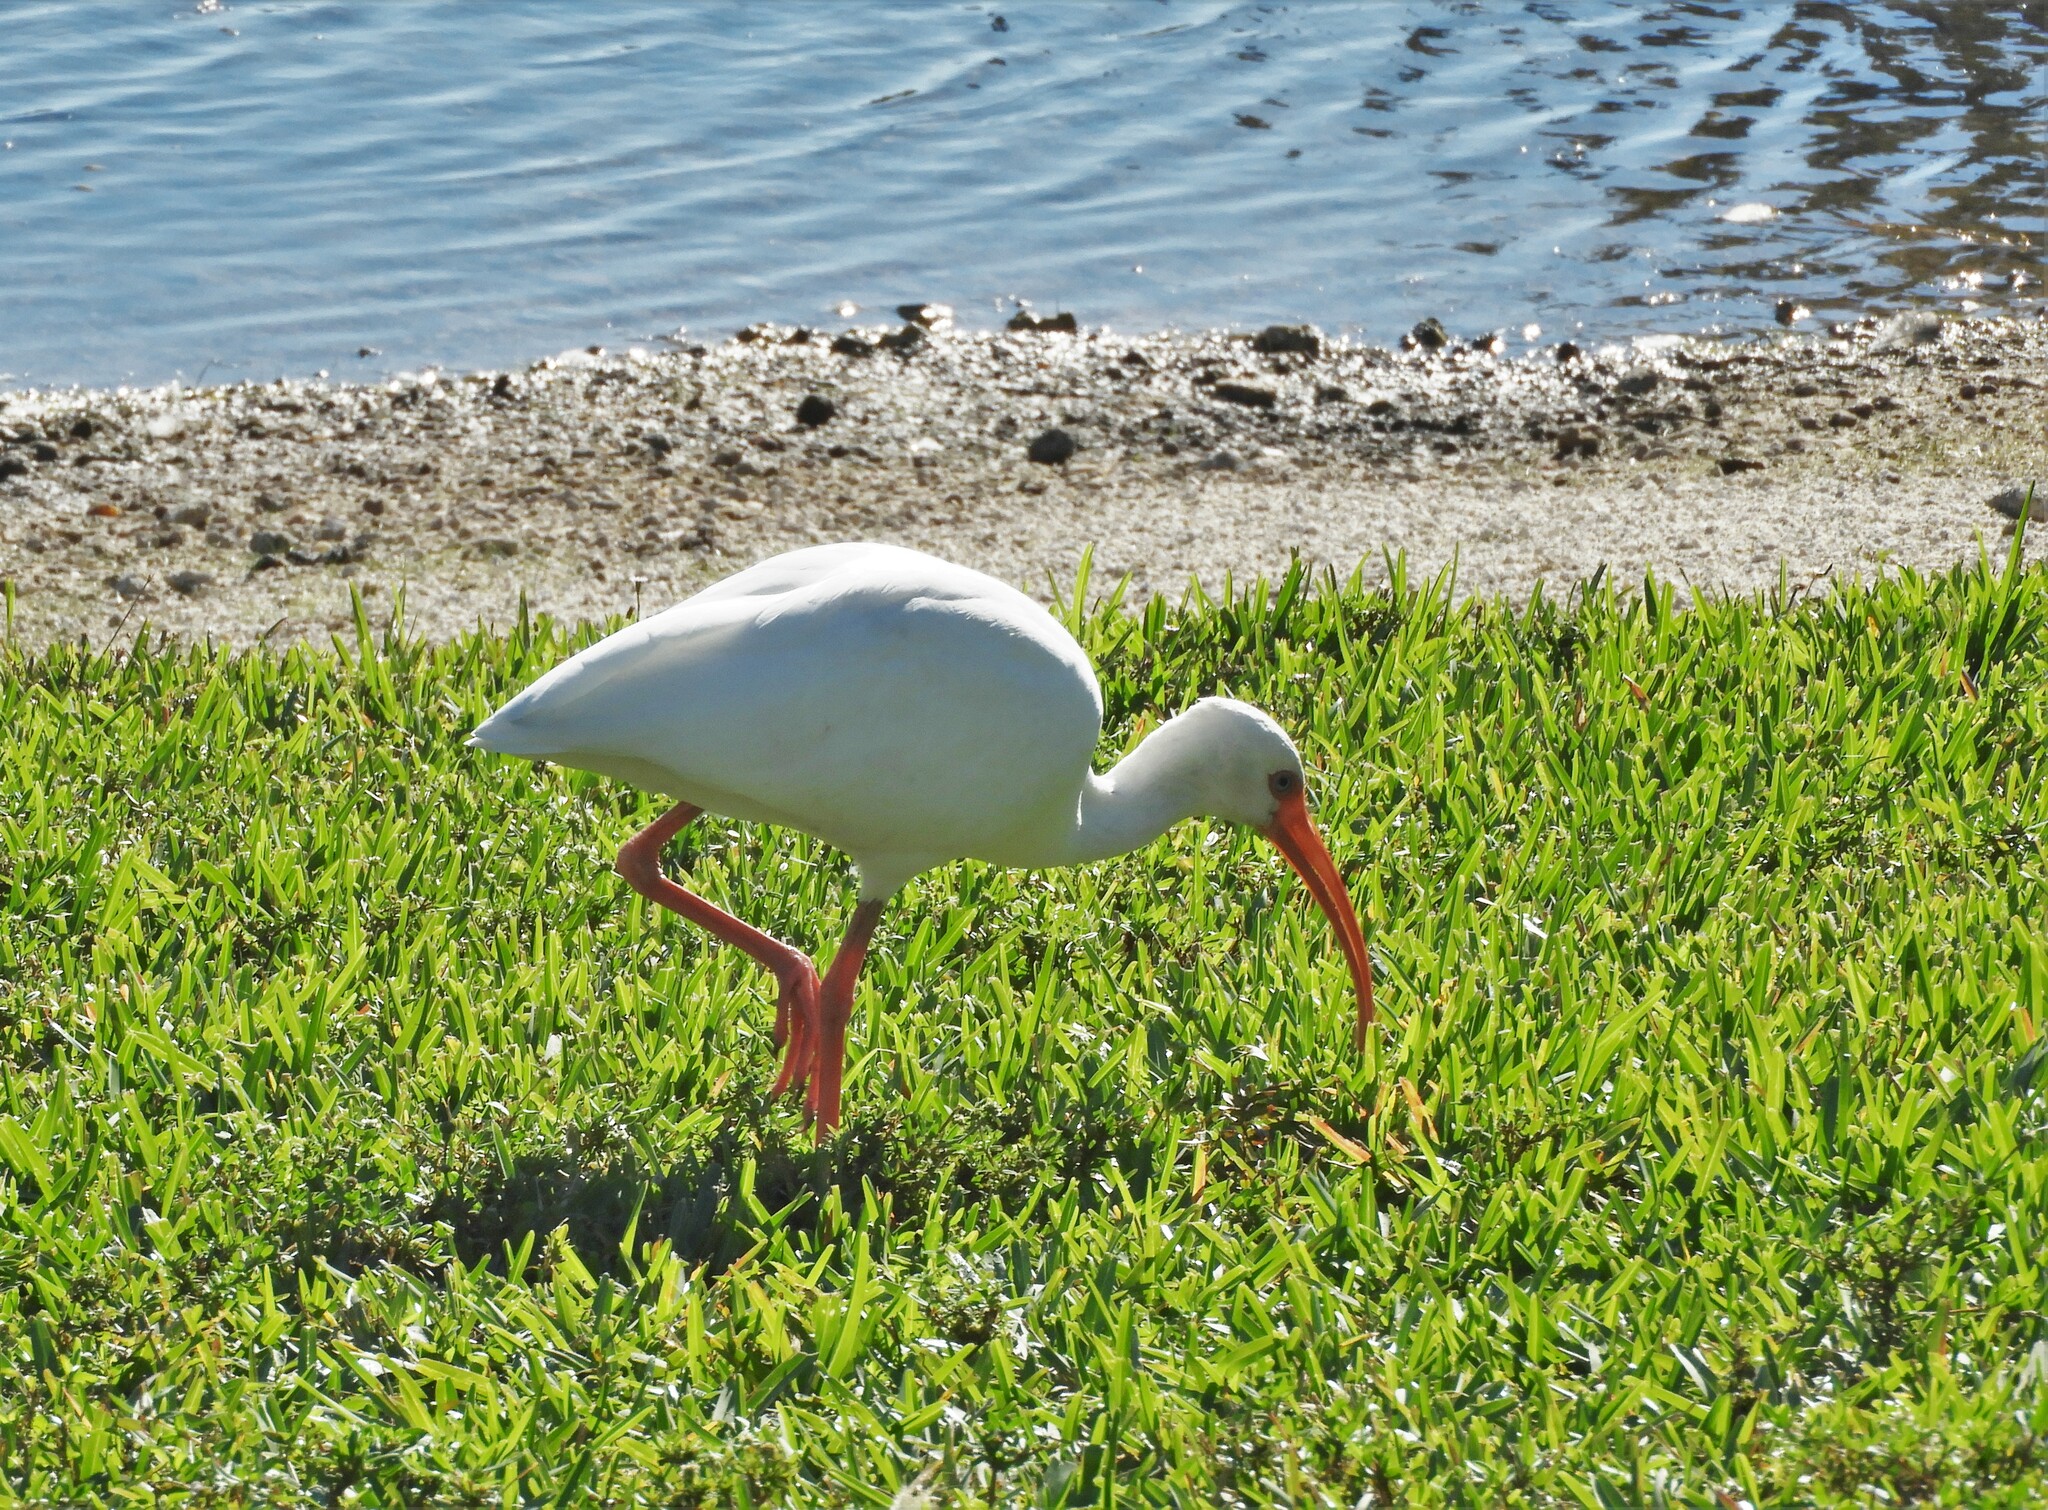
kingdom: Animalia
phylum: Chordata
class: Aves
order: Pelecaniformes
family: Threskiornithidae
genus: Eudocimus
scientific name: Eudocimus albus
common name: White ibis
